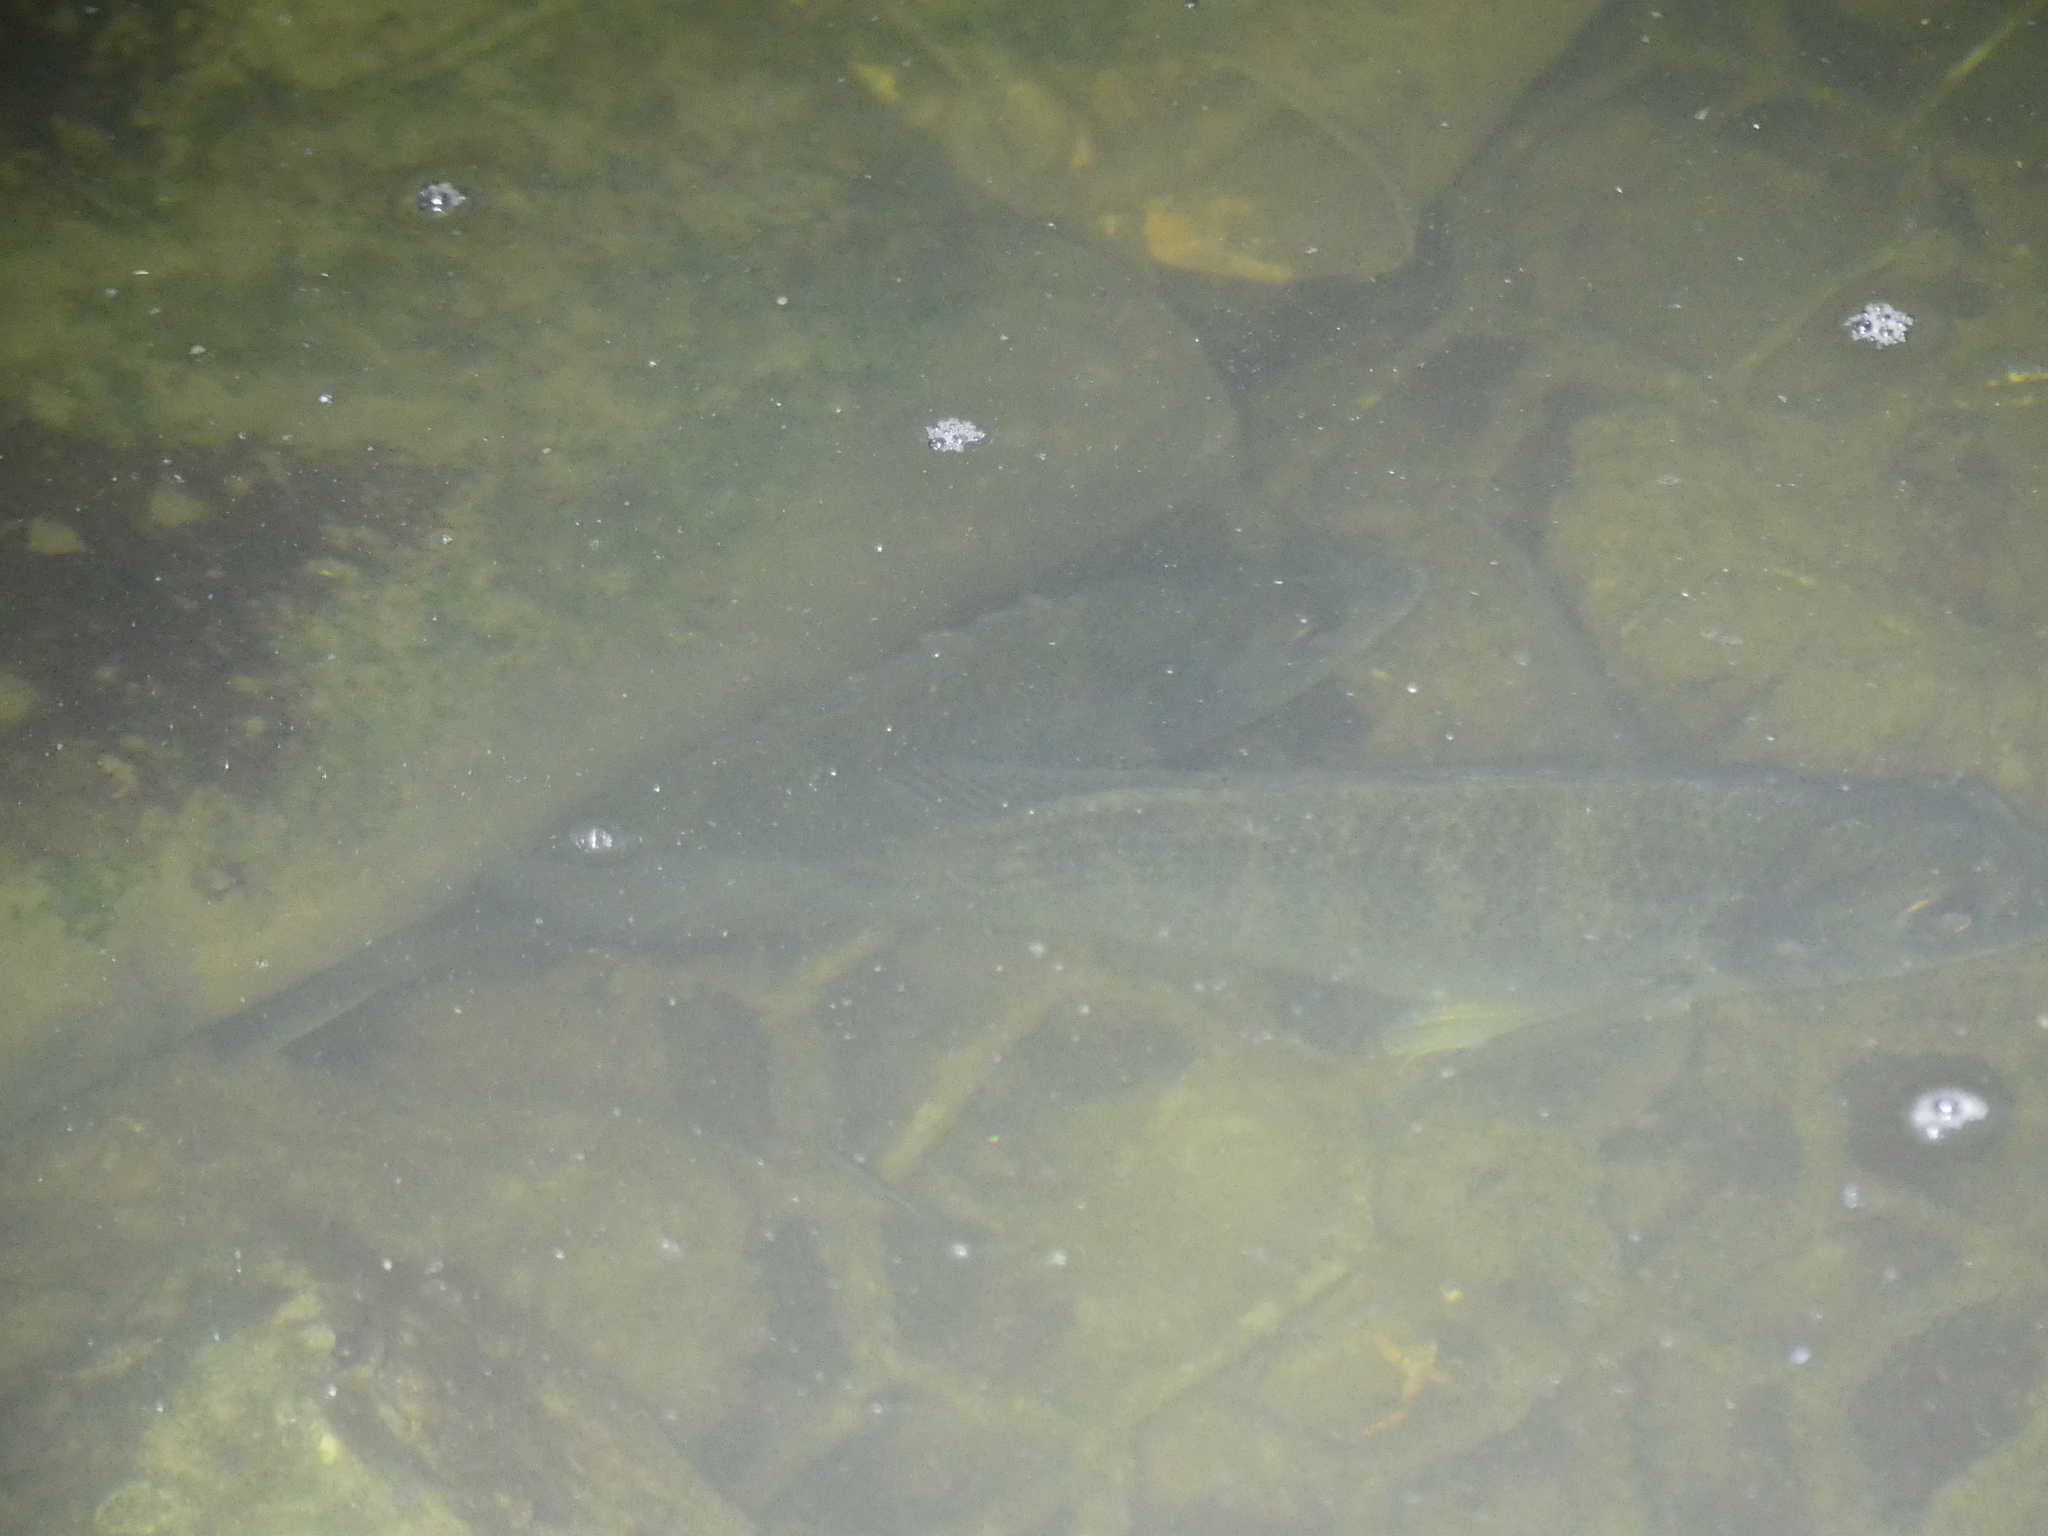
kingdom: Animalia
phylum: Chordata
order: Perciformes
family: Sparidae
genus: Acanthopagrus
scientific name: Acanthopagrus australis
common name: Surf bream
